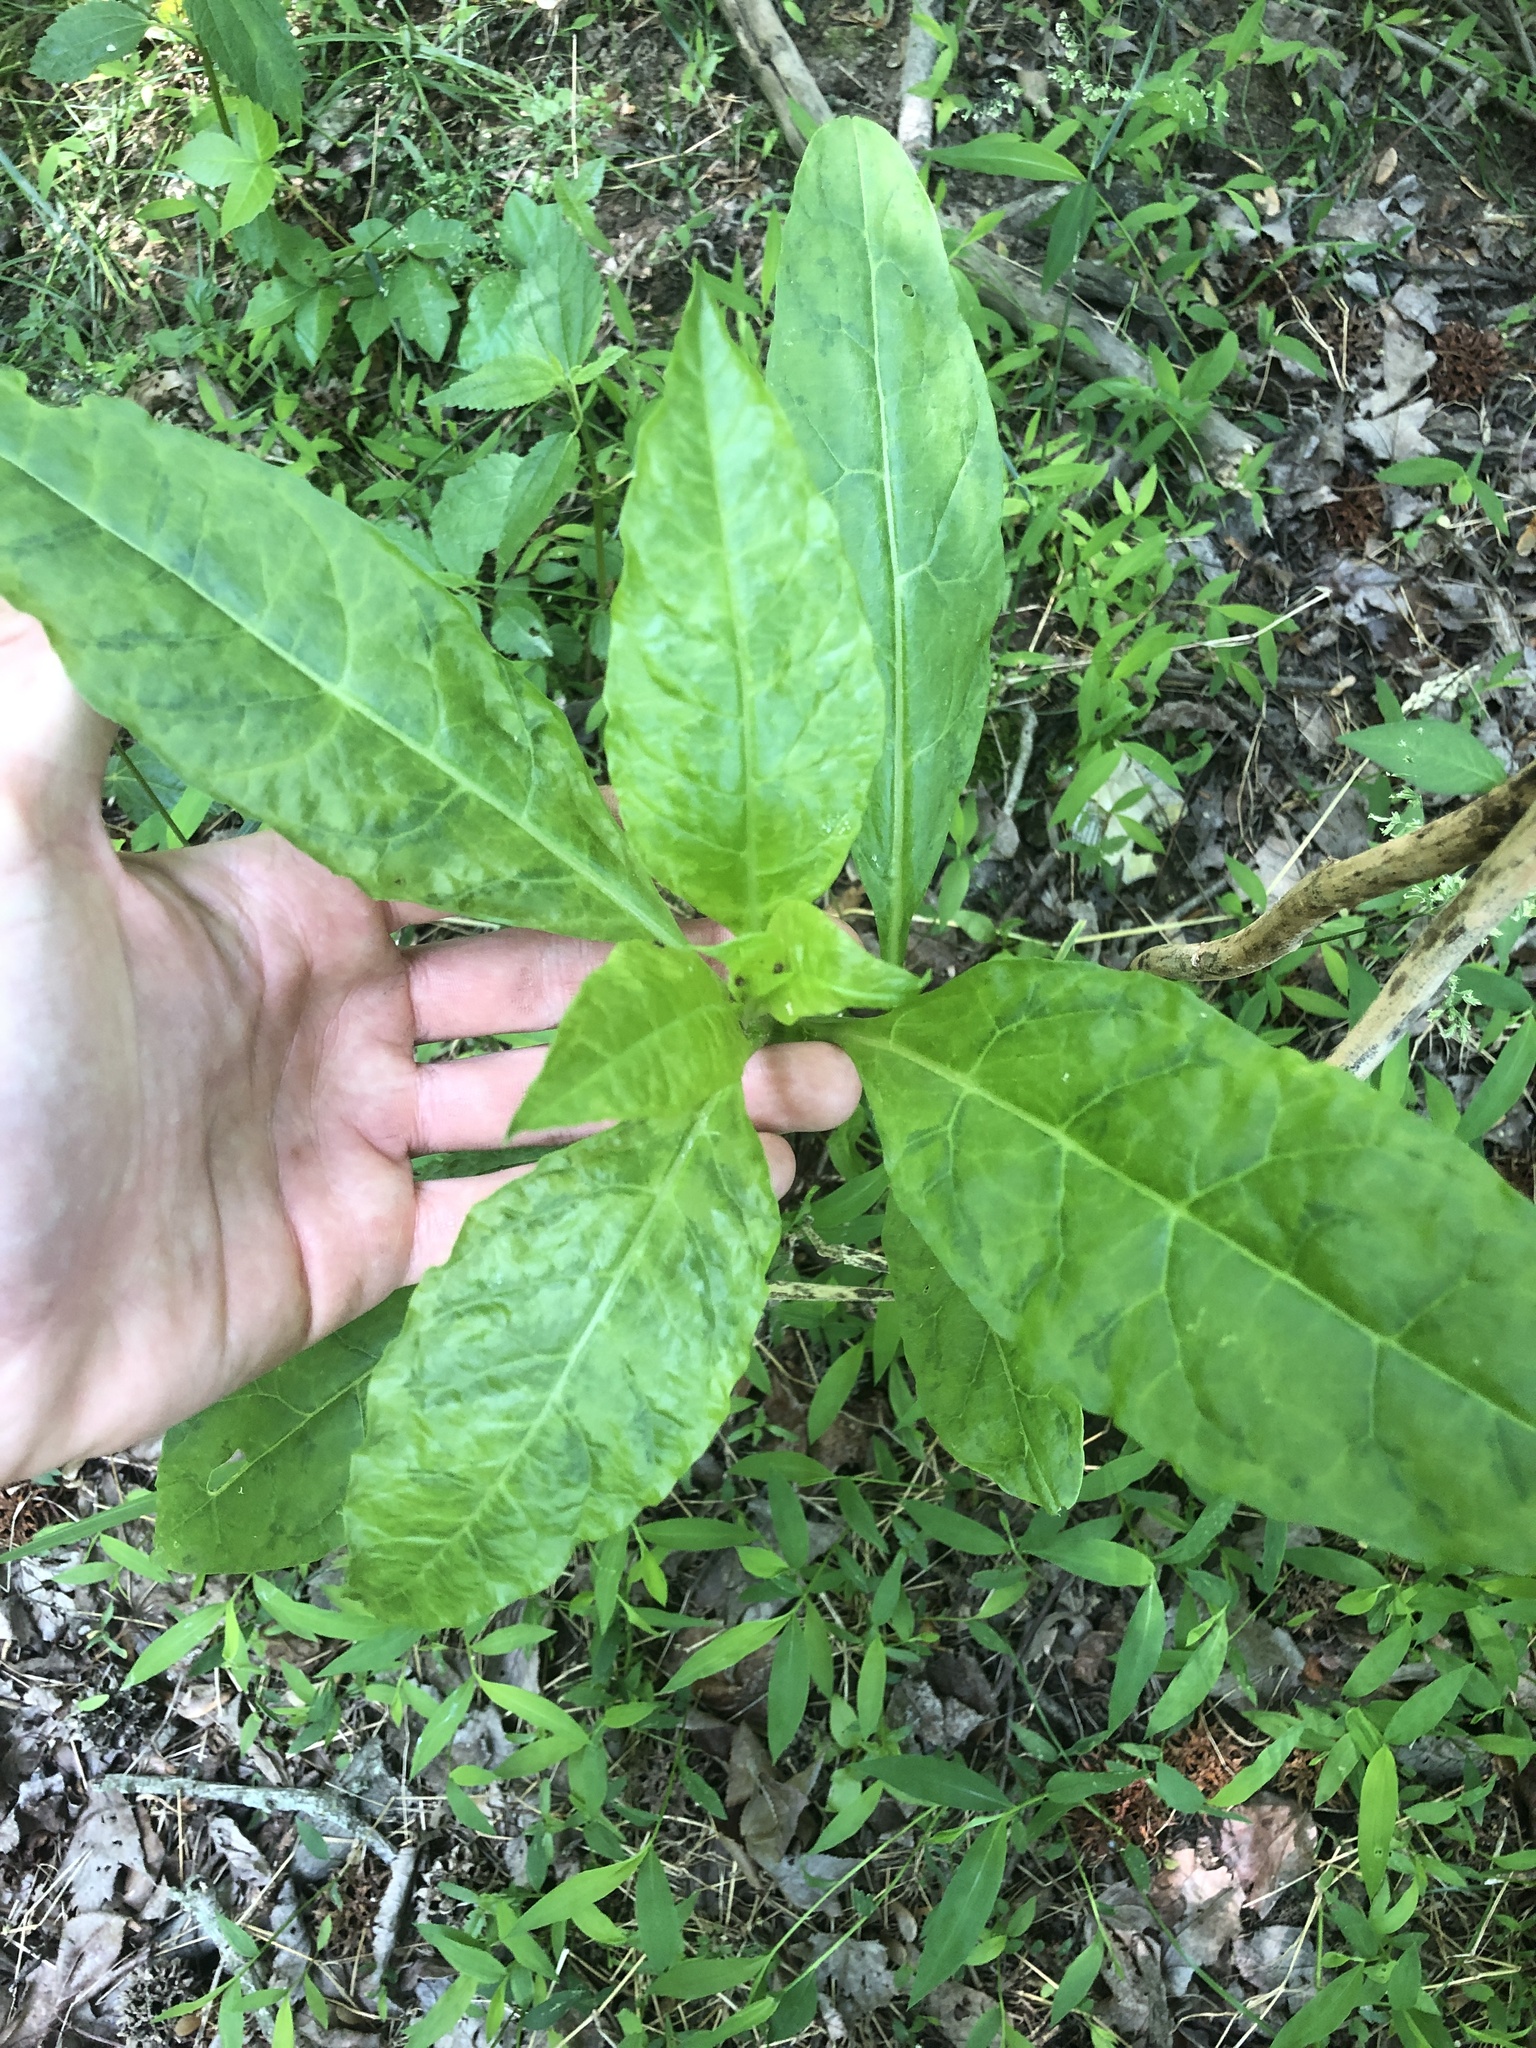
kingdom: Plantae
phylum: Tracheophyta
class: Magnoliopsida
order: Caryophyllales
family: Phytolaccaceae
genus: Phytolacca
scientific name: Phytolacca americana
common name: American pokeweed
